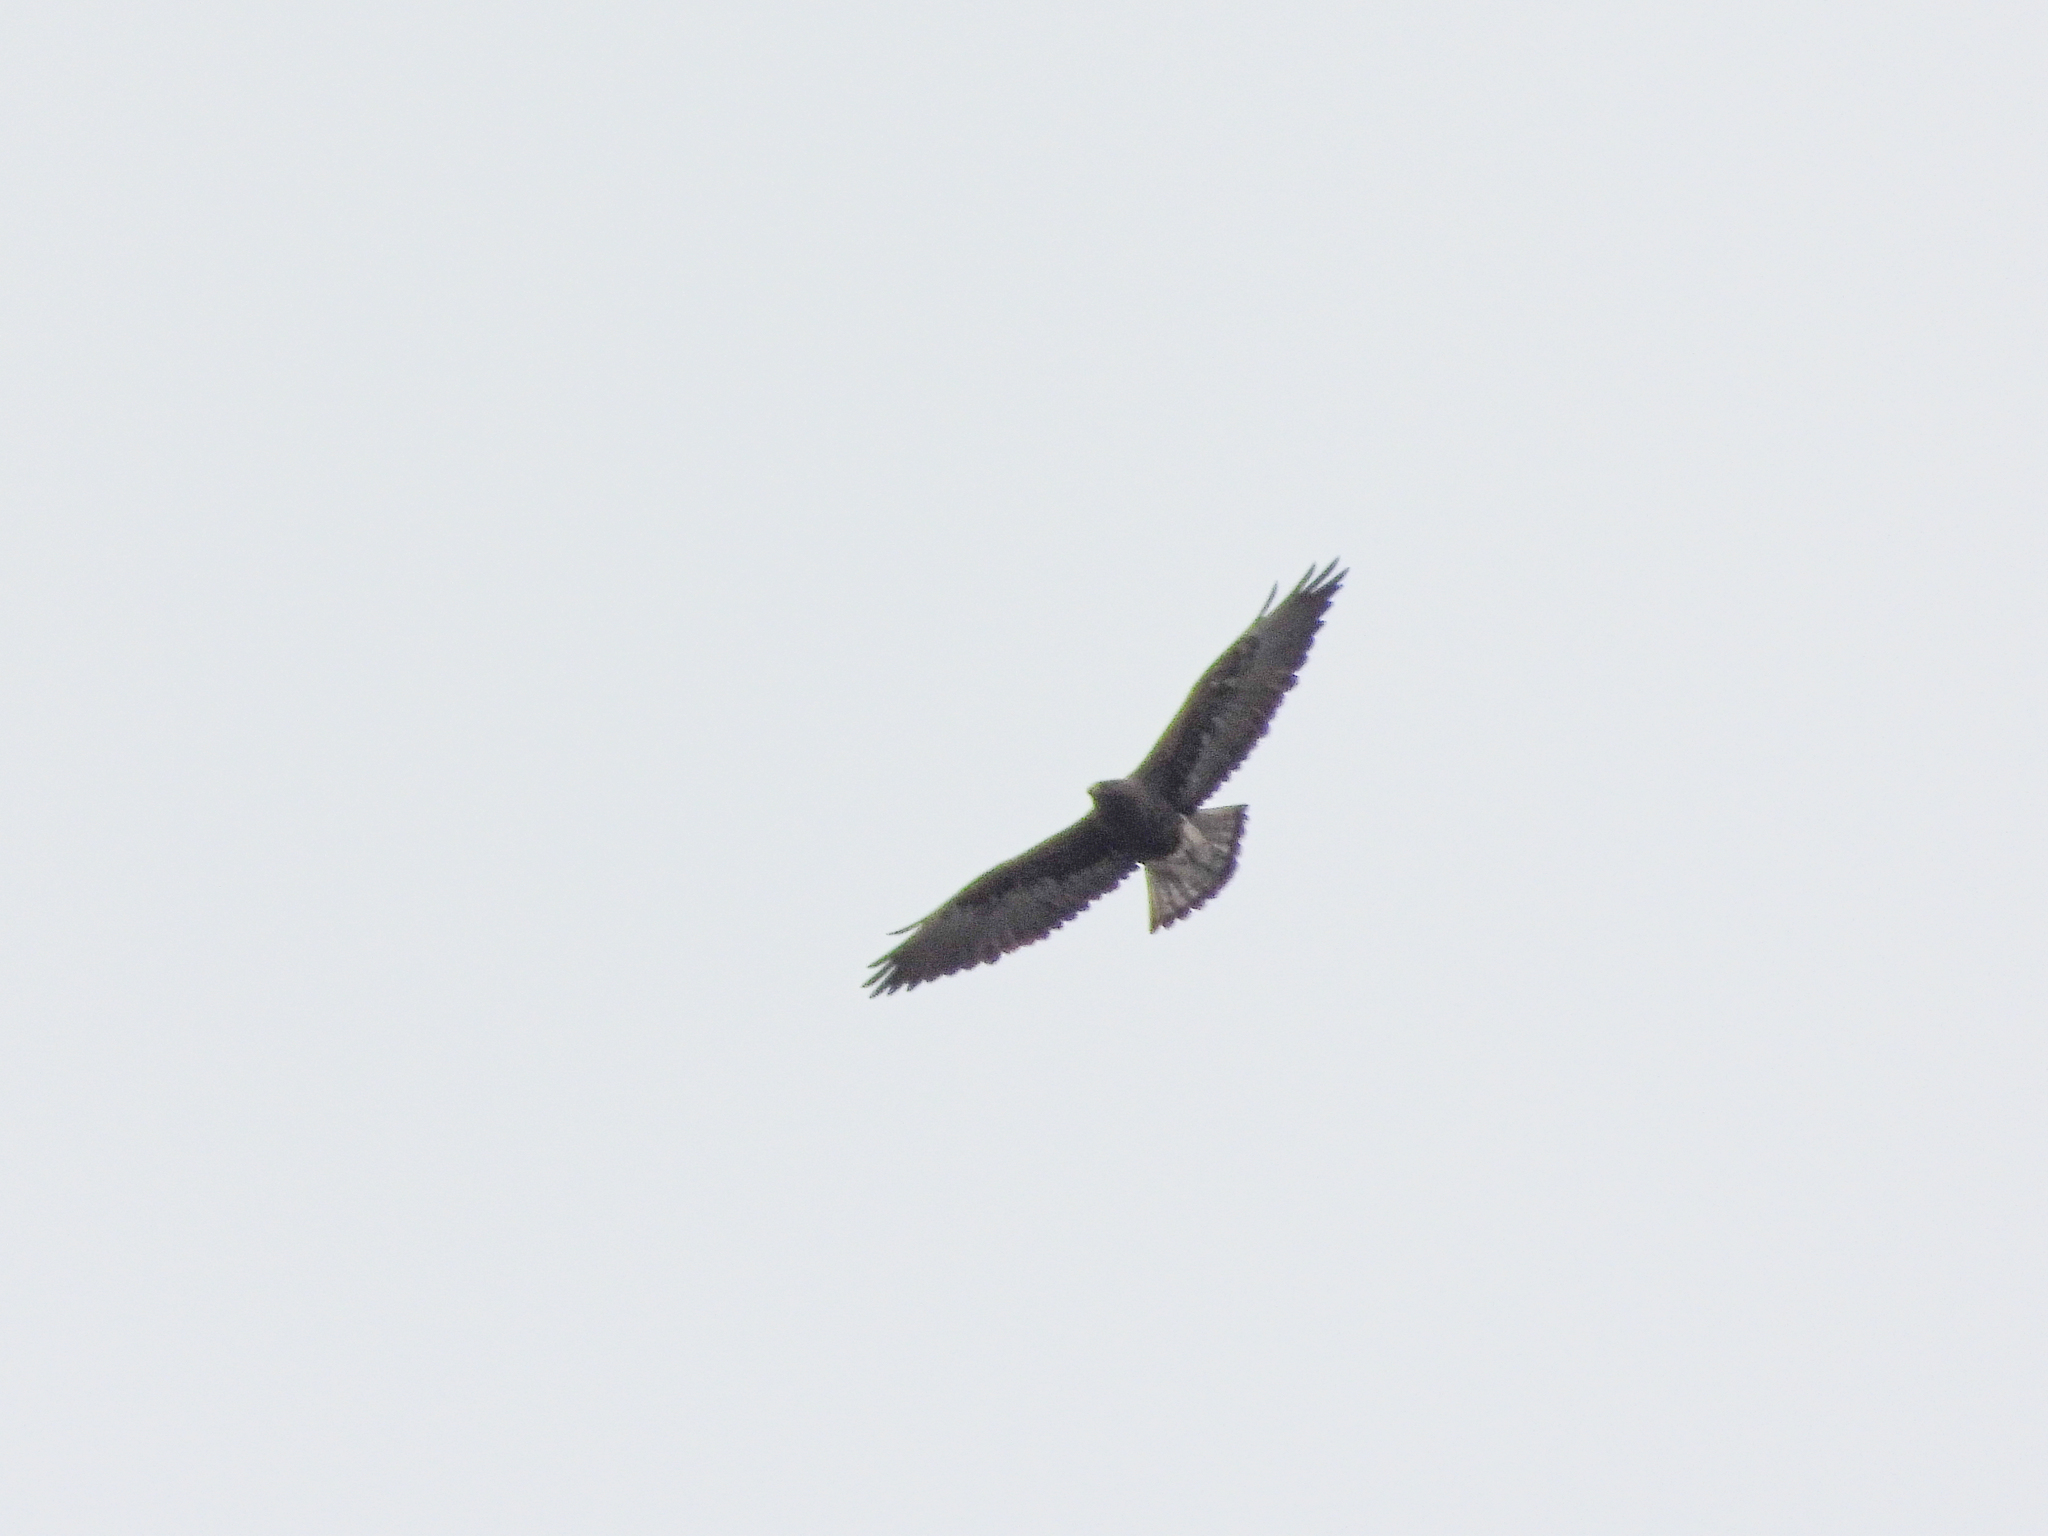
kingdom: Animalia
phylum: Chordata
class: Aves
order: Accipitriformes
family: Accipitridae
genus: Buteo
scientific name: Buteo swainsoni
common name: Swainson's hawk
